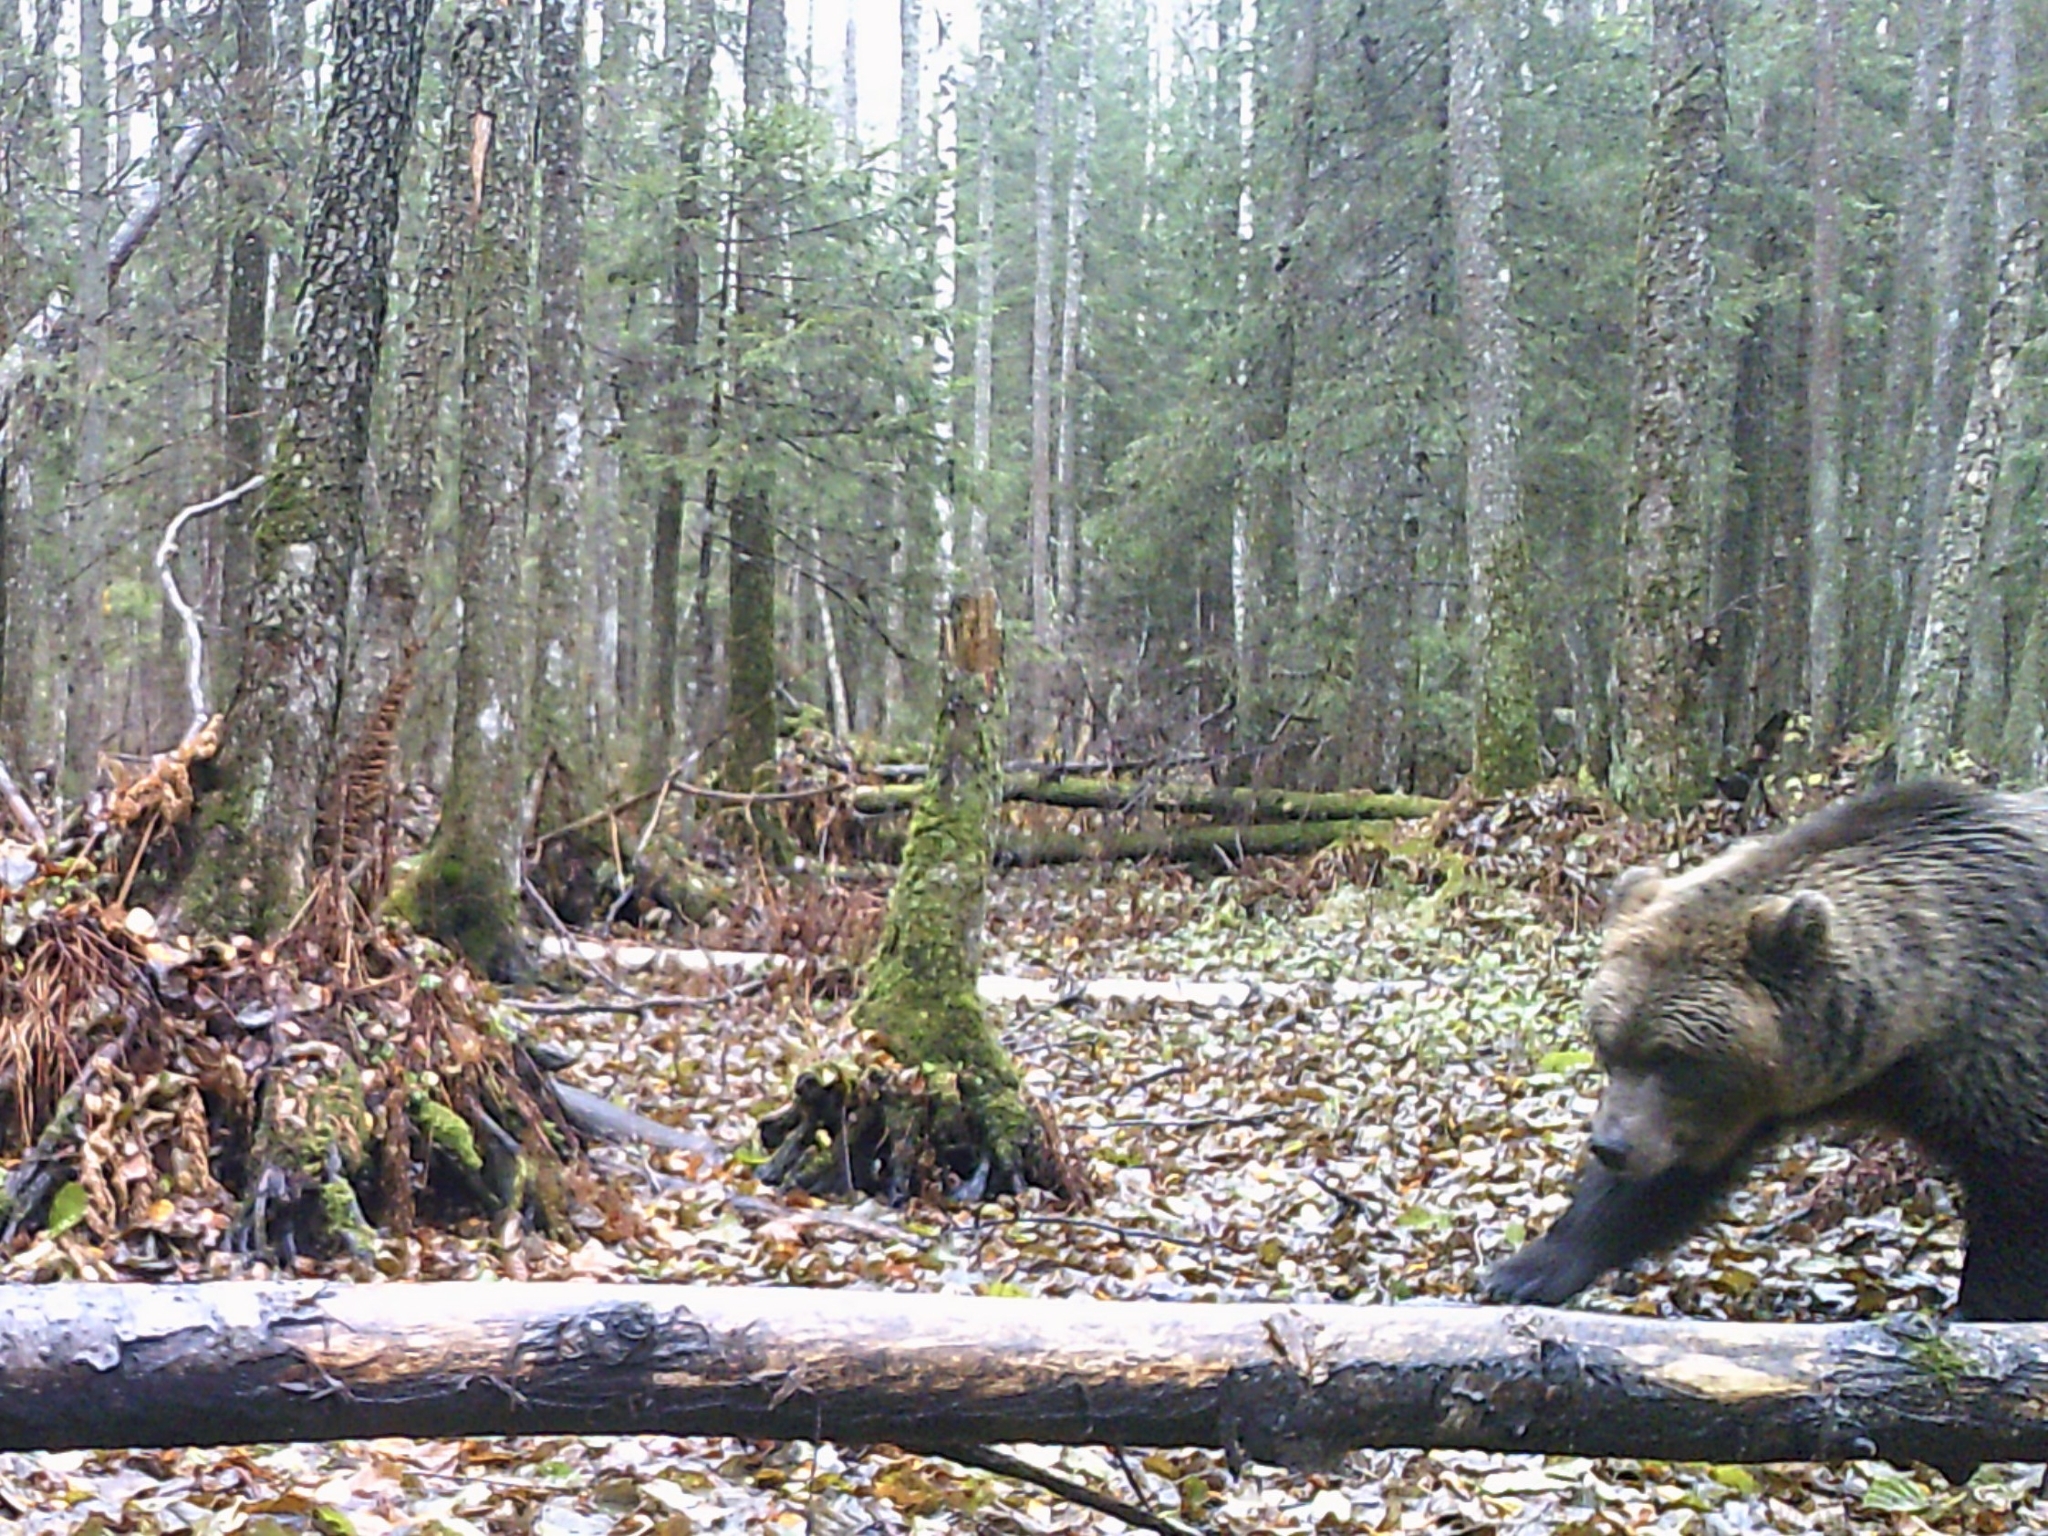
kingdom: Animalia
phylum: Chordata
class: Mammalia
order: Carnivora
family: Ursidae
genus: Ursus
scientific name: Ursus arctos
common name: Brown bear
